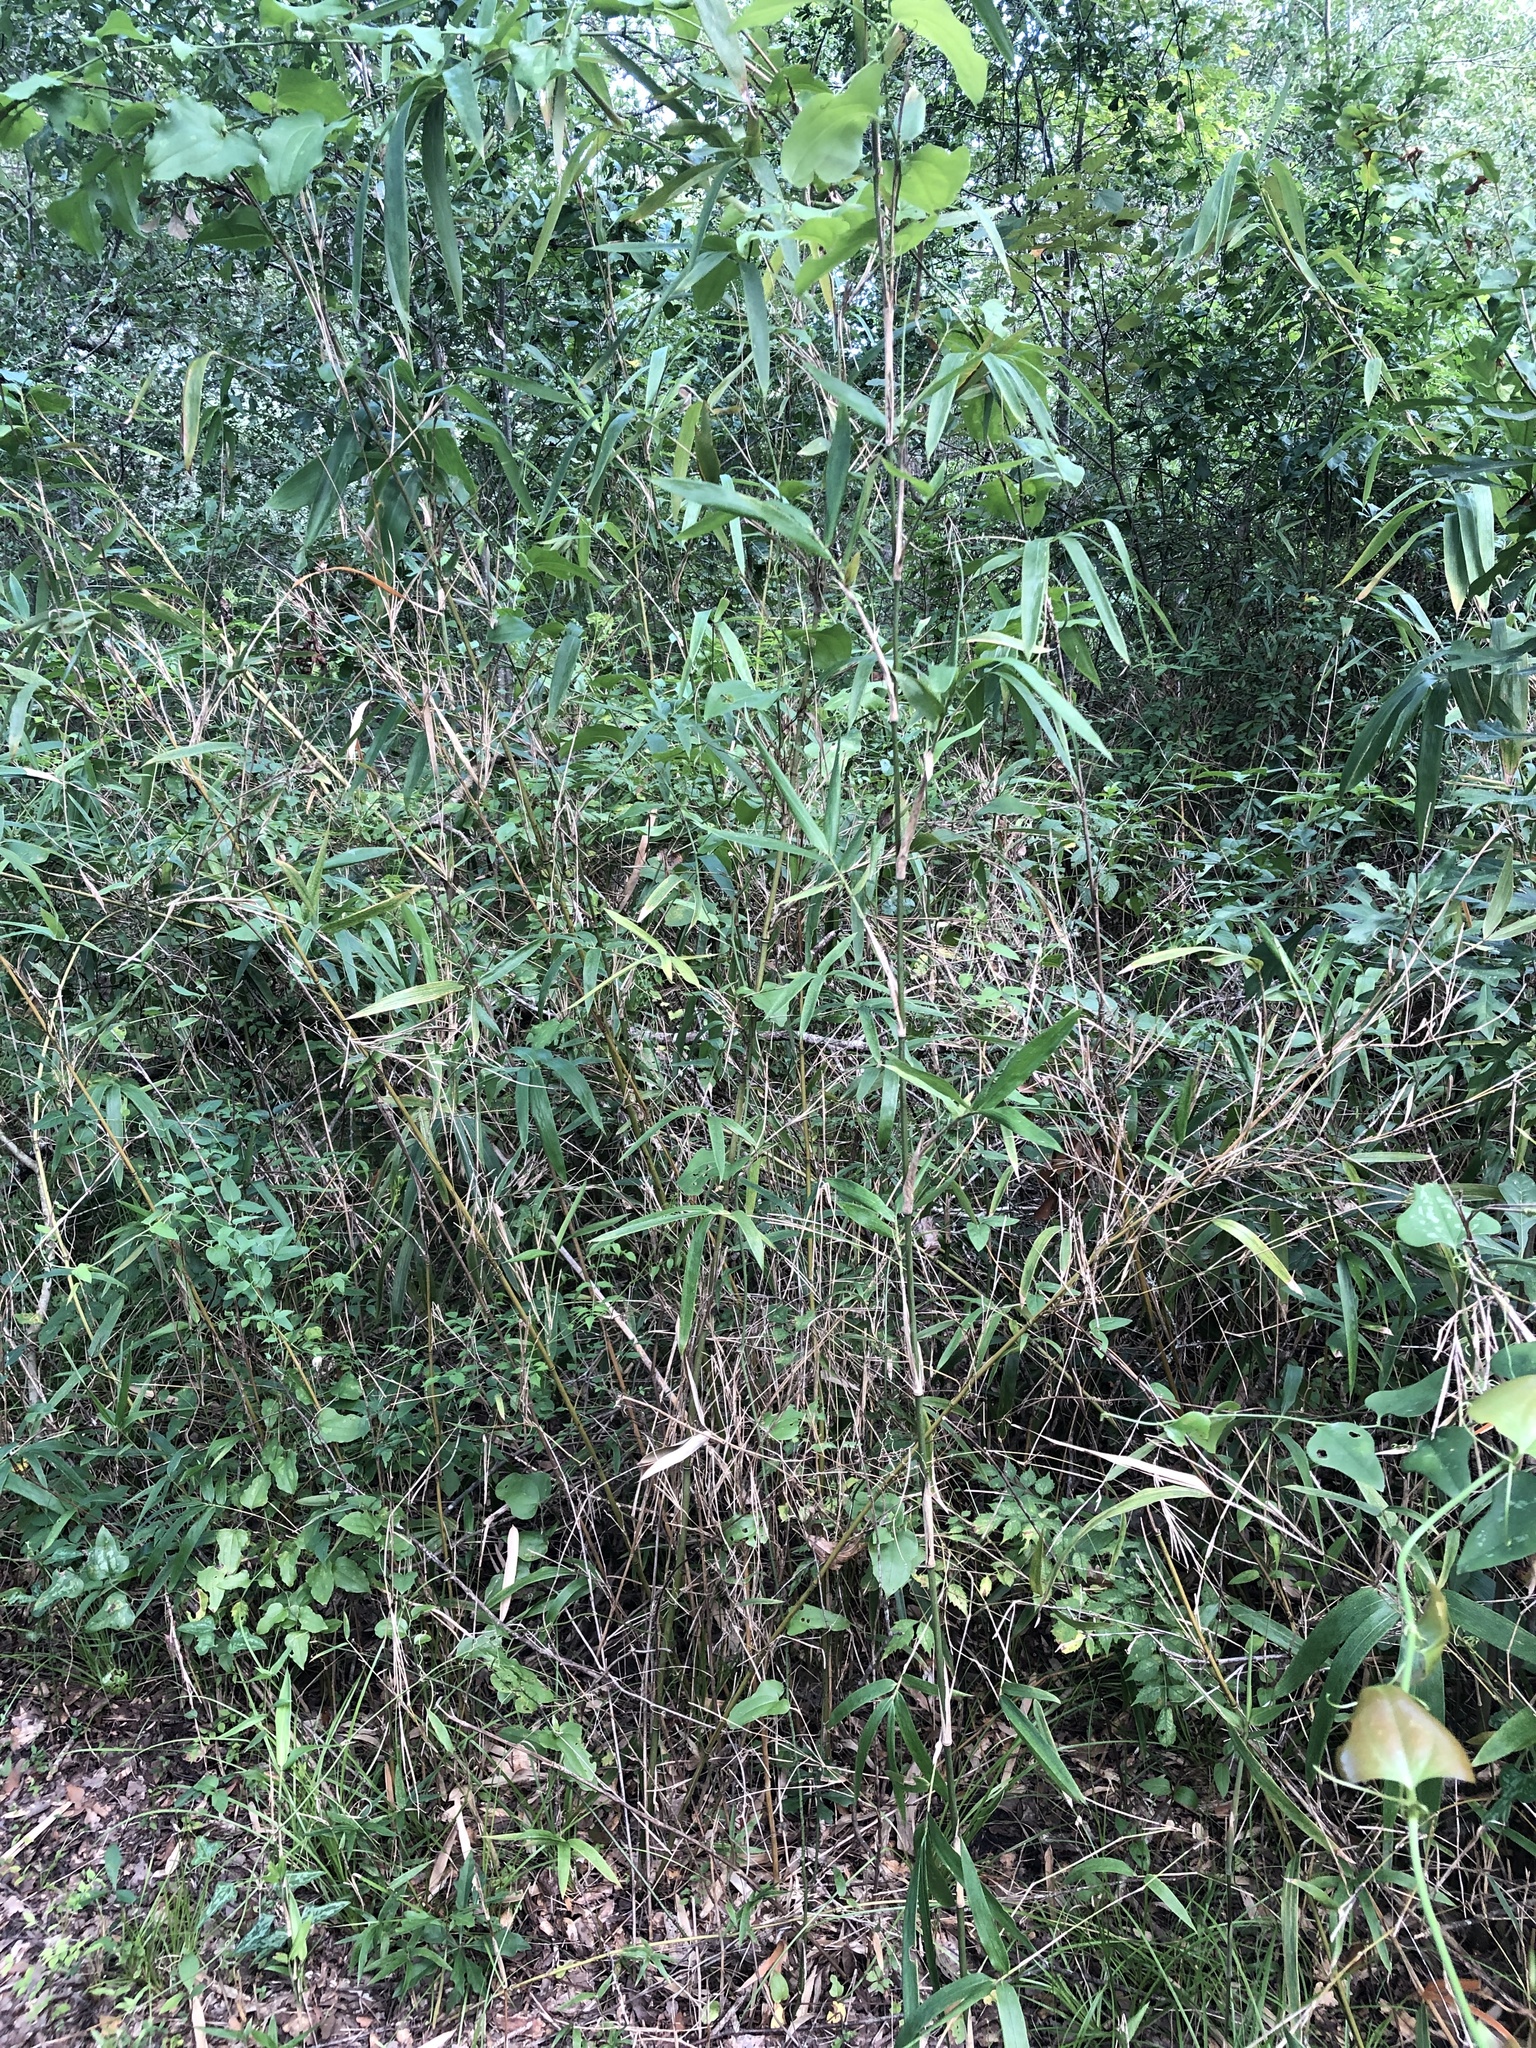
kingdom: Plantae
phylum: Tracheophyta
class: Liliopsida
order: Poales
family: Poaceae
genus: Arundinaria
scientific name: Arundinaria gigantea
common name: Giant cane
